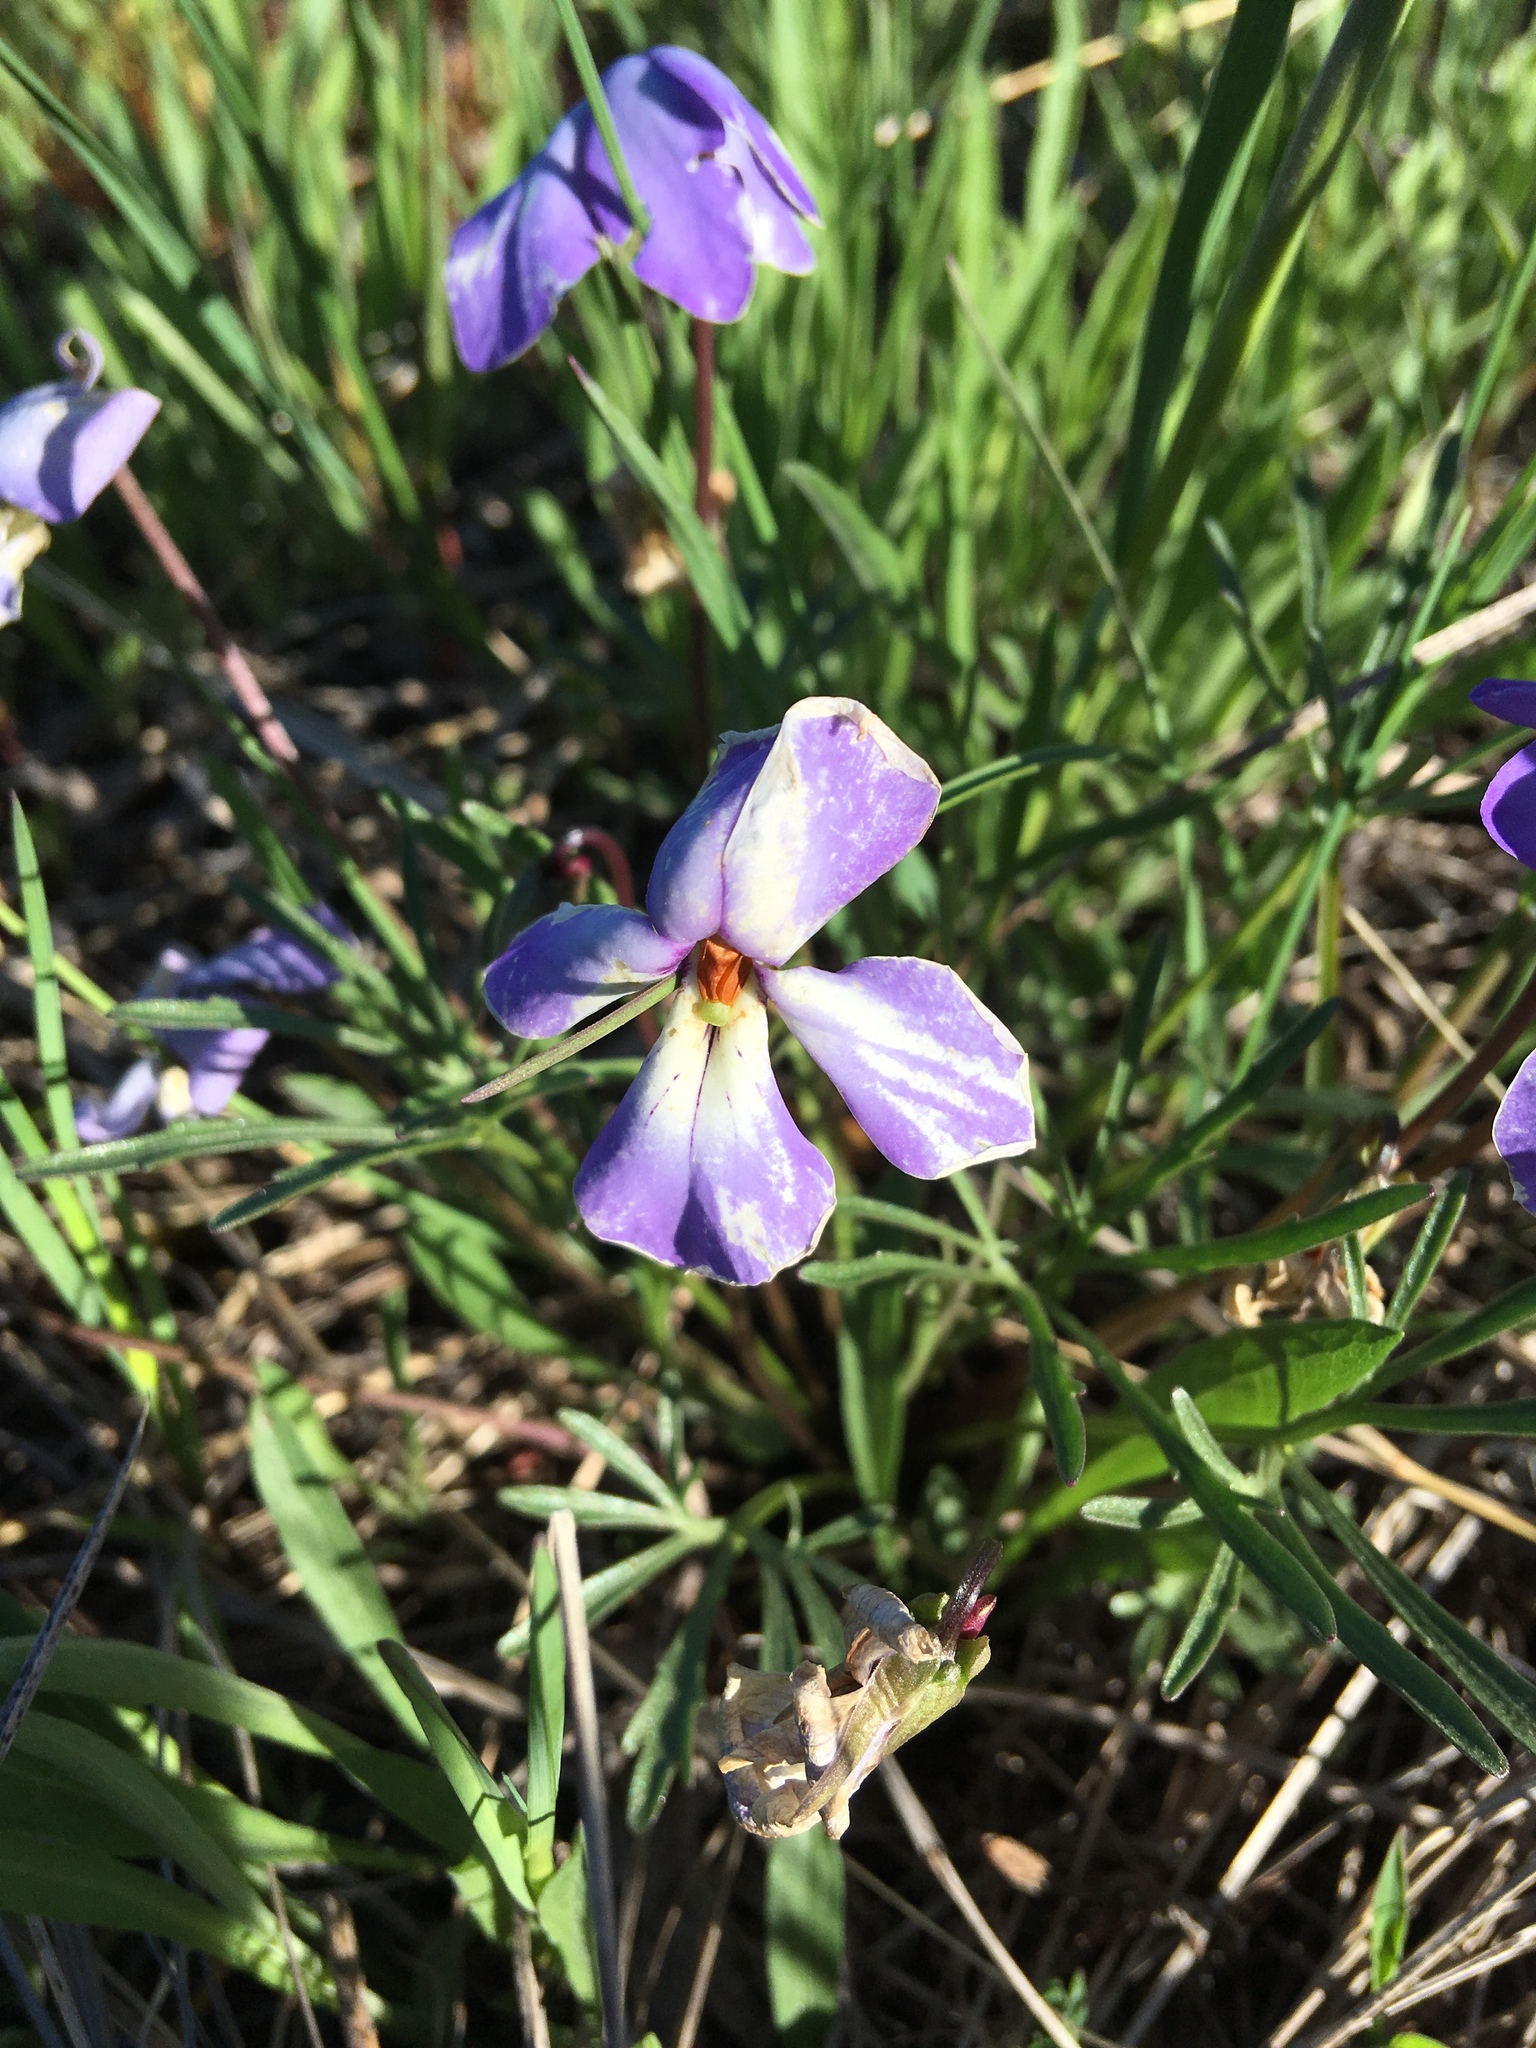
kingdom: Plantae
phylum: Tracheophyta
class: Magnoliopsida
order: Malpighiales
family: Violaceae
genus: Viola
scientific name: Viola pedata
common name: Pansy violet
